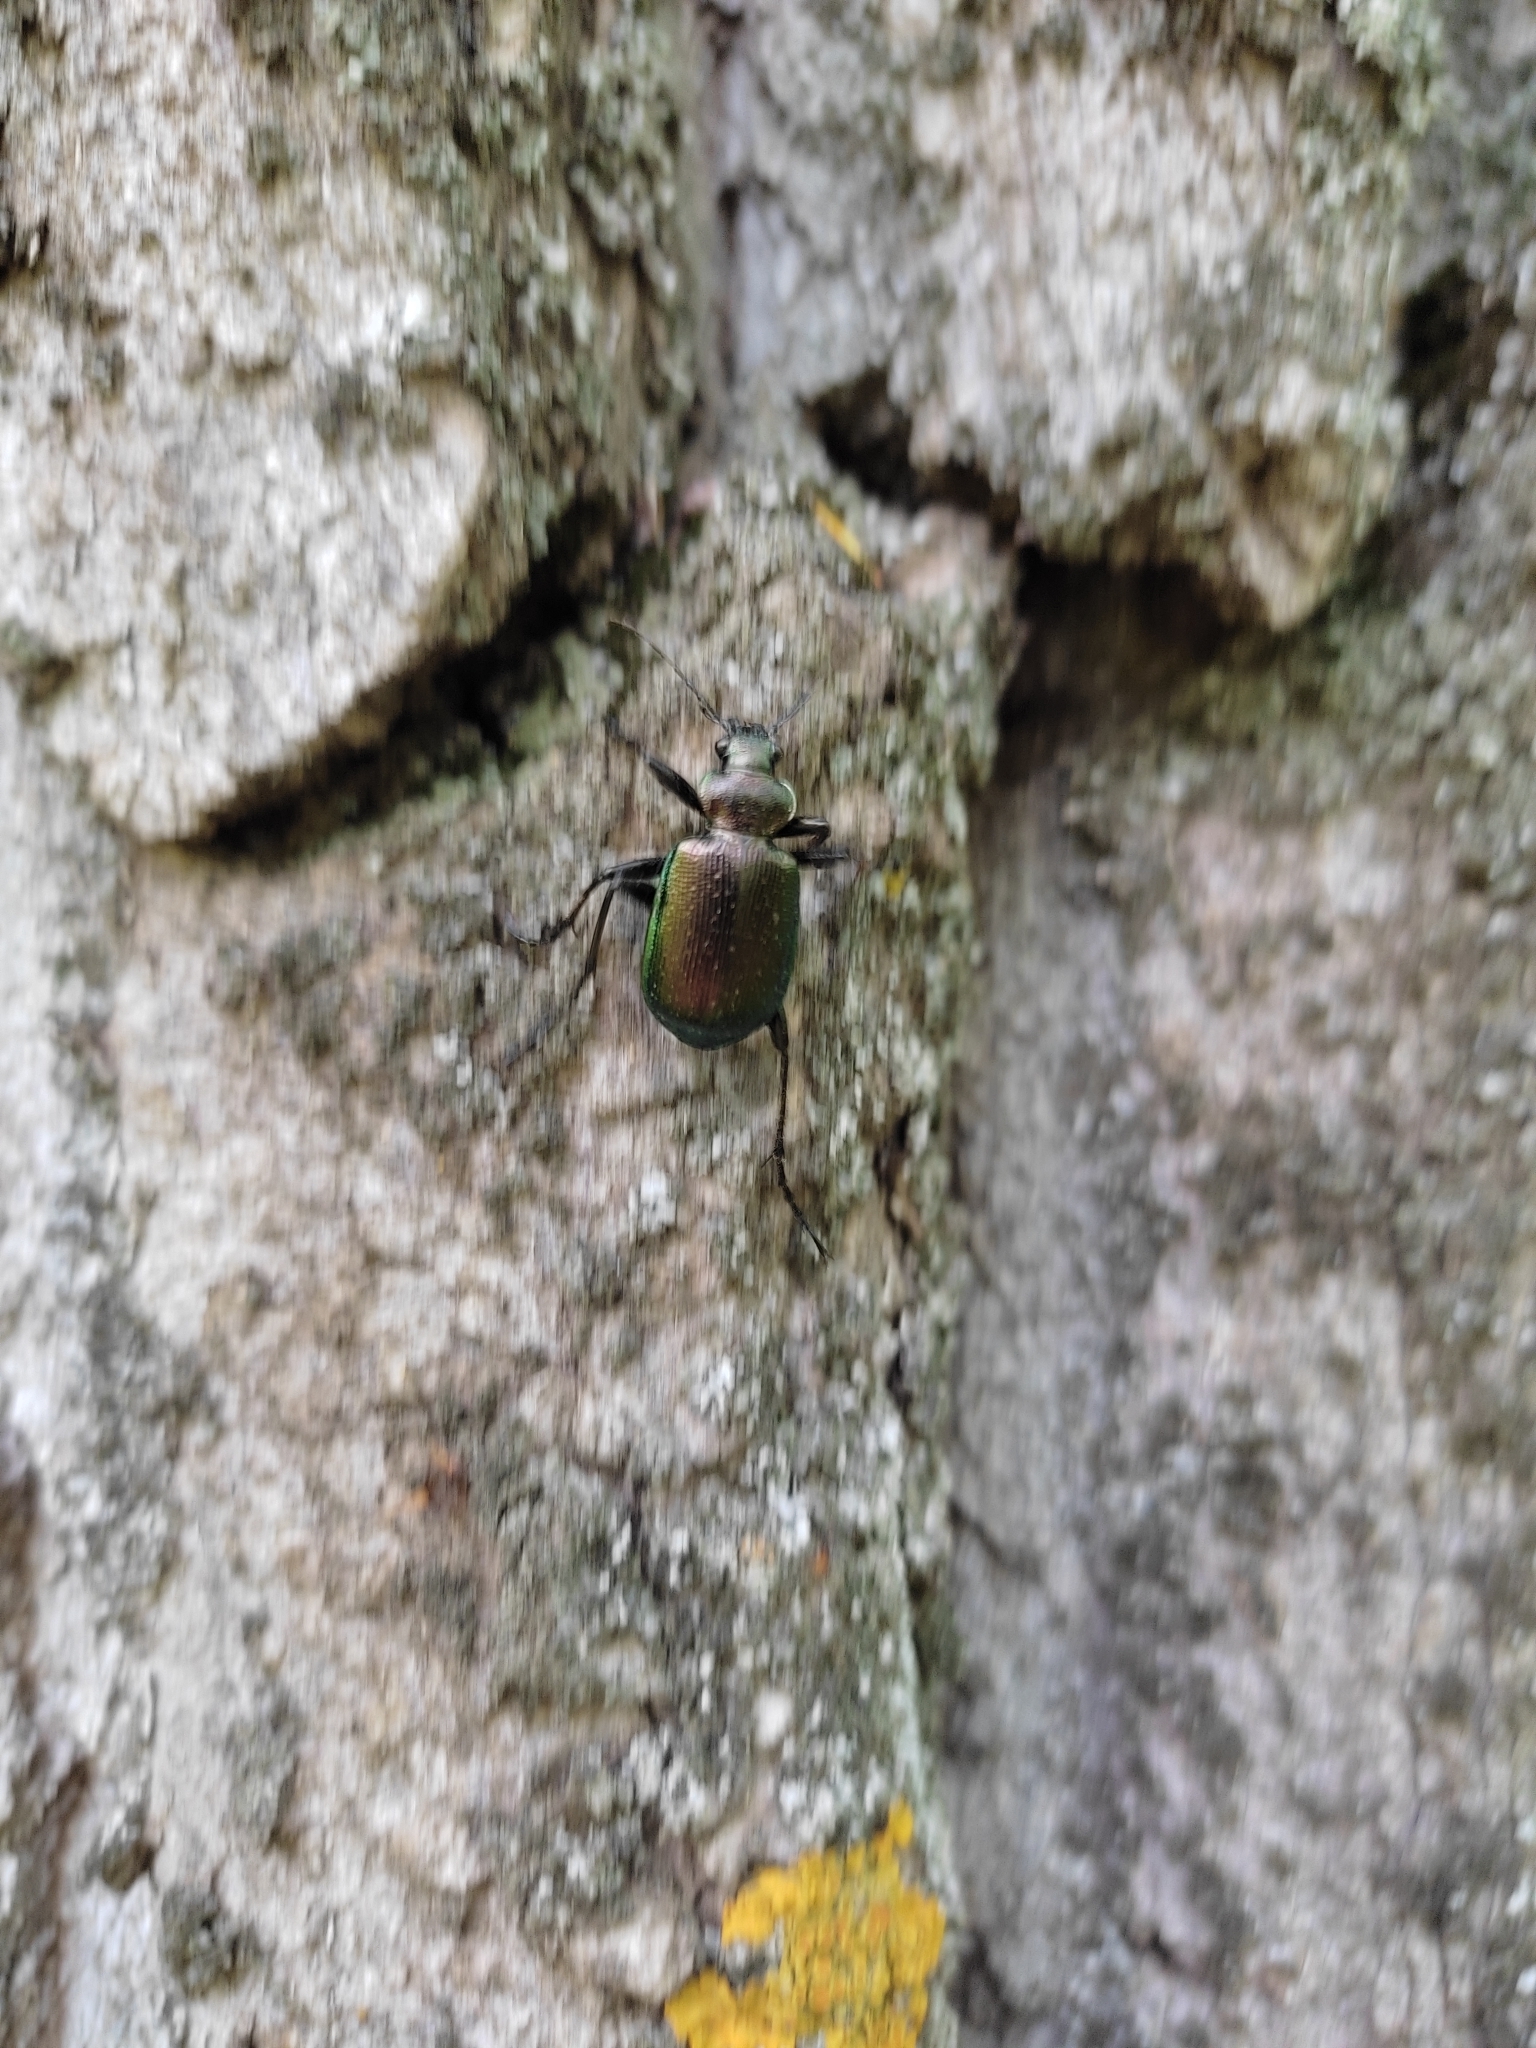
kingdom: Animalia
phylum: Arthropoda
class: Insecta
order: Coleoptera
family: Carabidae
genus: Calosoma
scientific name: Calosoma inquisitor
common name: Caterpillar-hunter
